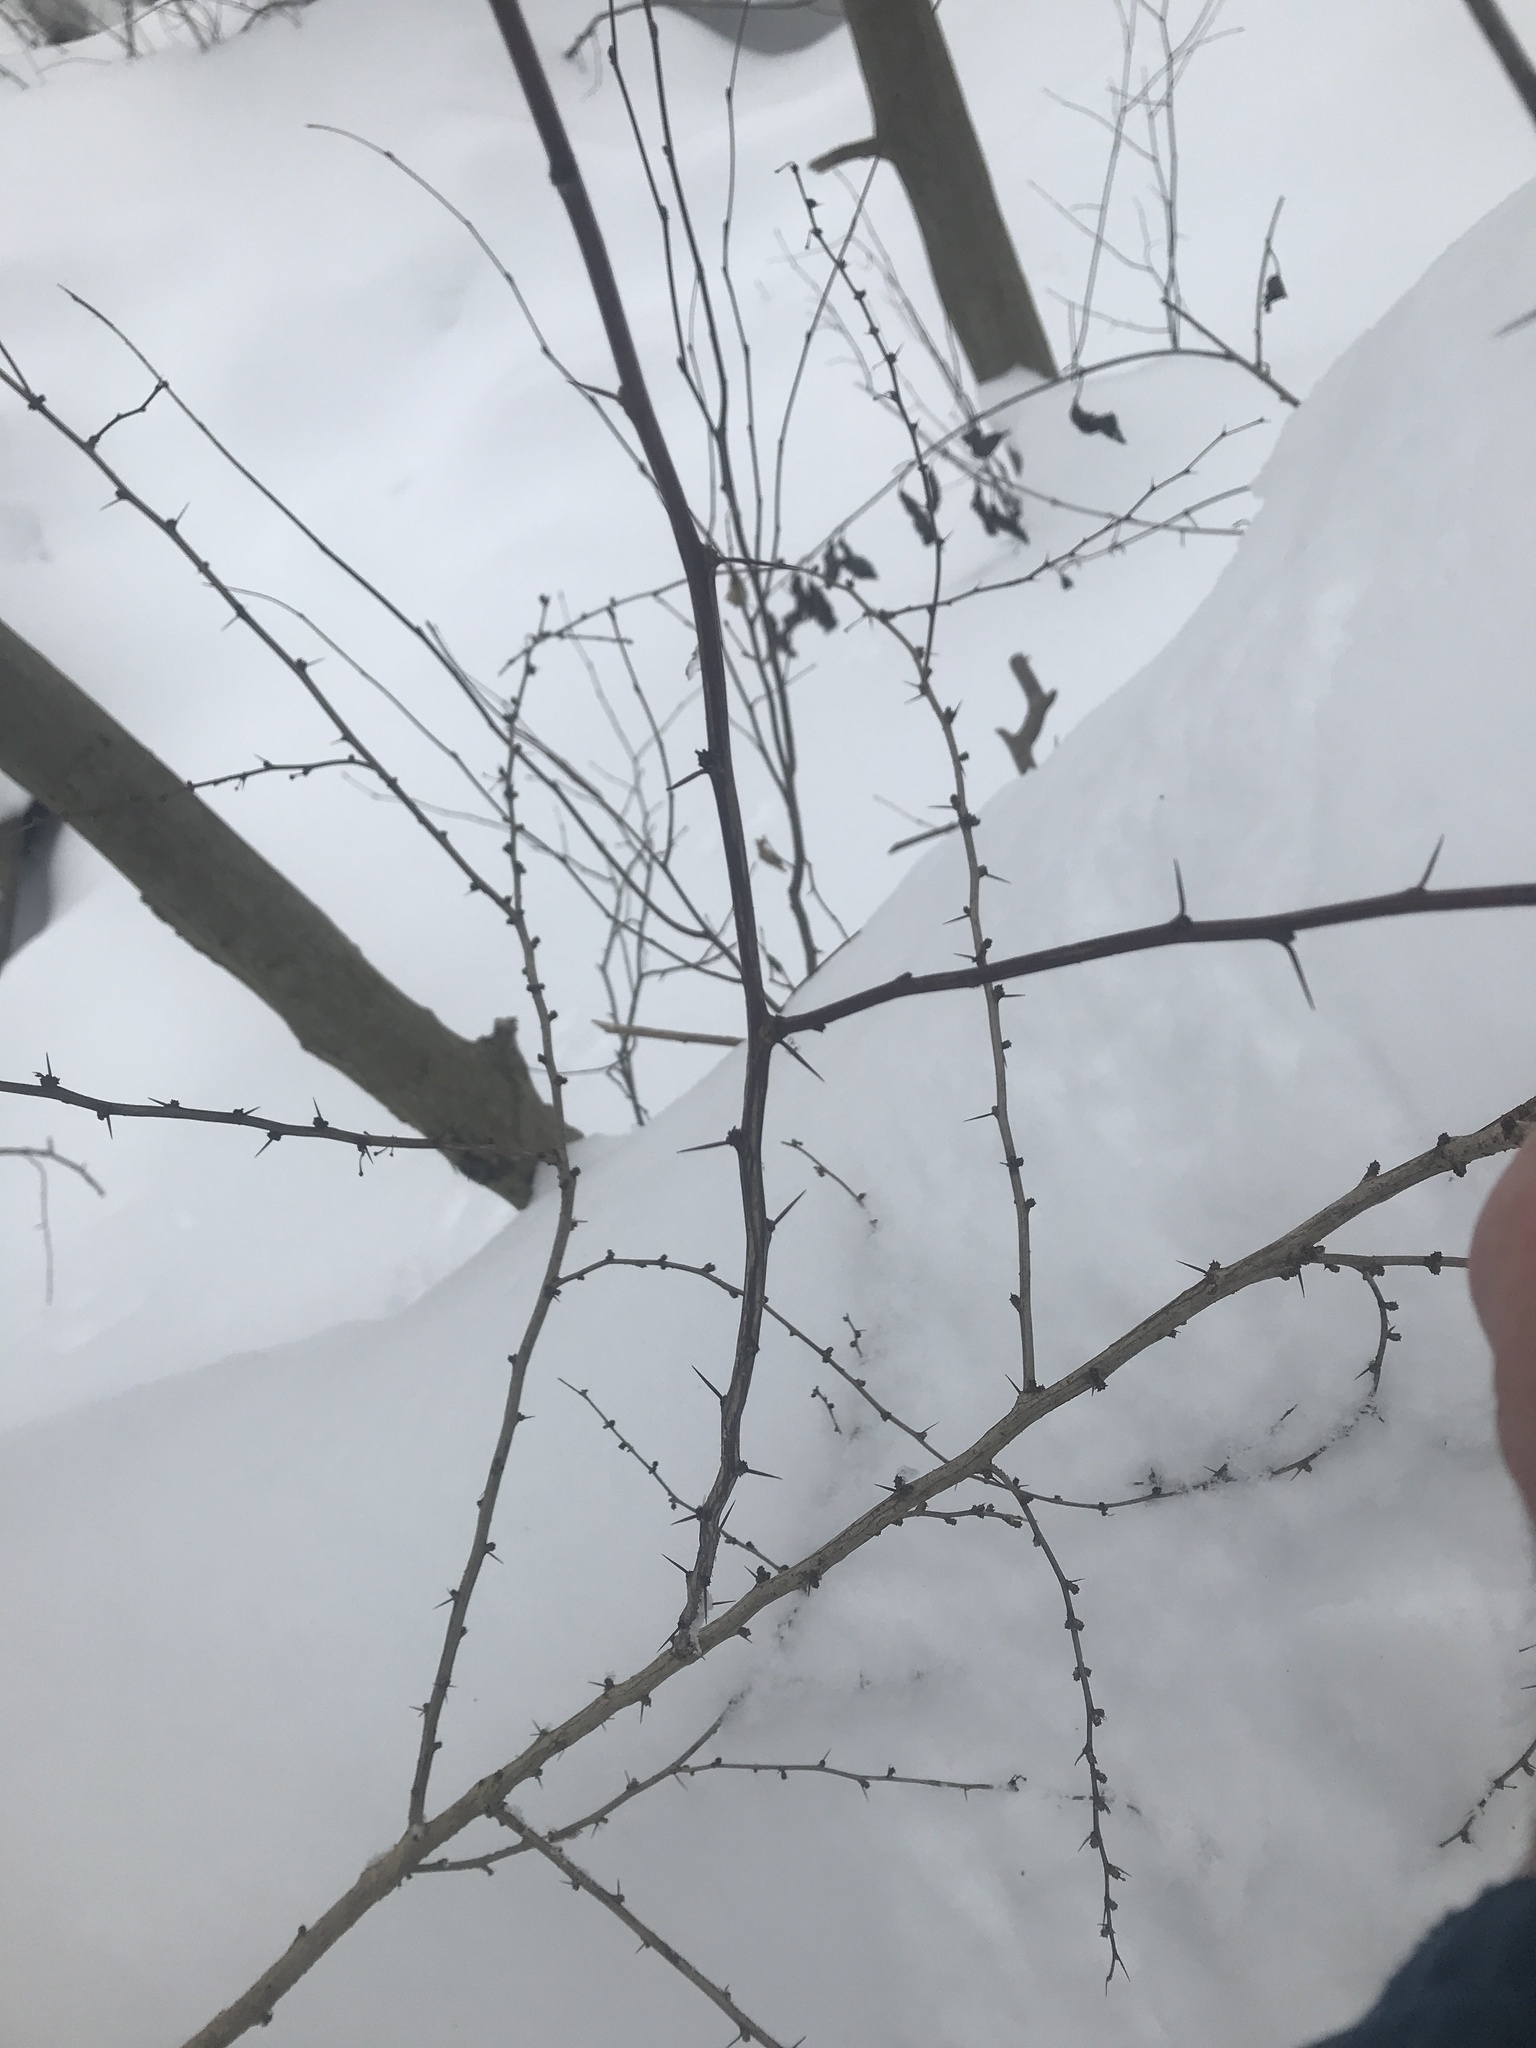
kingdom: Plantae
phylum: Tracheophyta
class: Magnoliopsida
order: Ranunculales
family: Berberidaceae
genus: Berberis
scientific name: Berberis thunbergii
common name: Japanese barberry
